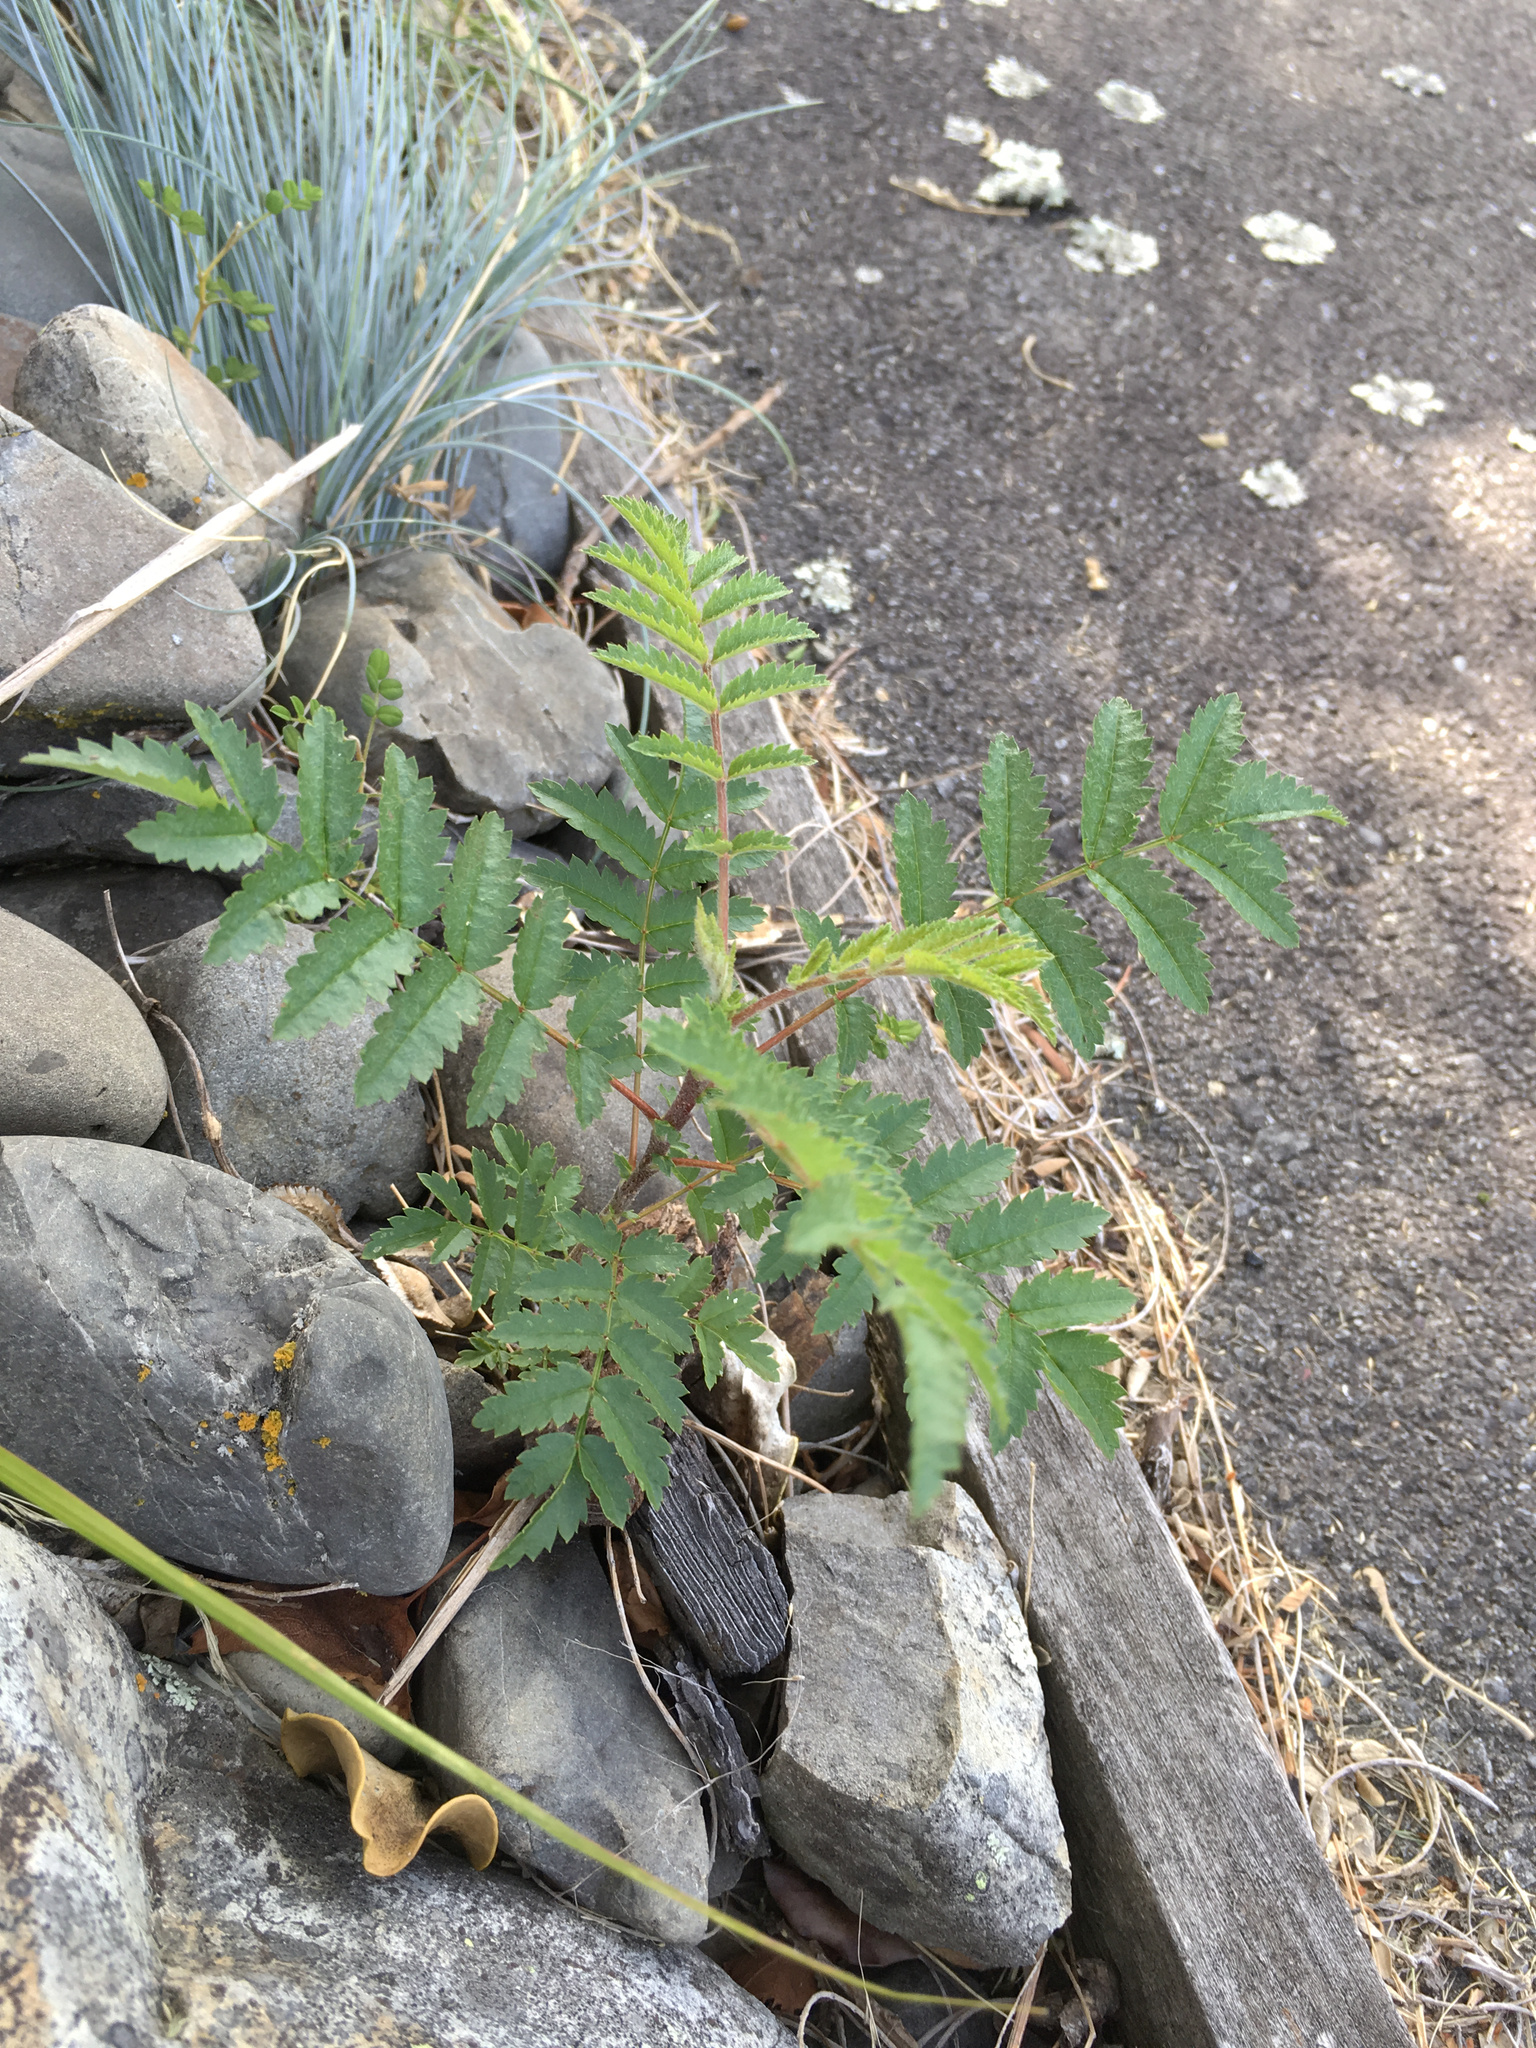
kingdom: Plantae
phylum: Tracheophyta
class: Magnoliopsida
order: Rosales
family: Rosaceae
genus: Sorbus
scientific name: Sorbus aucuparia
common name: Rowan
